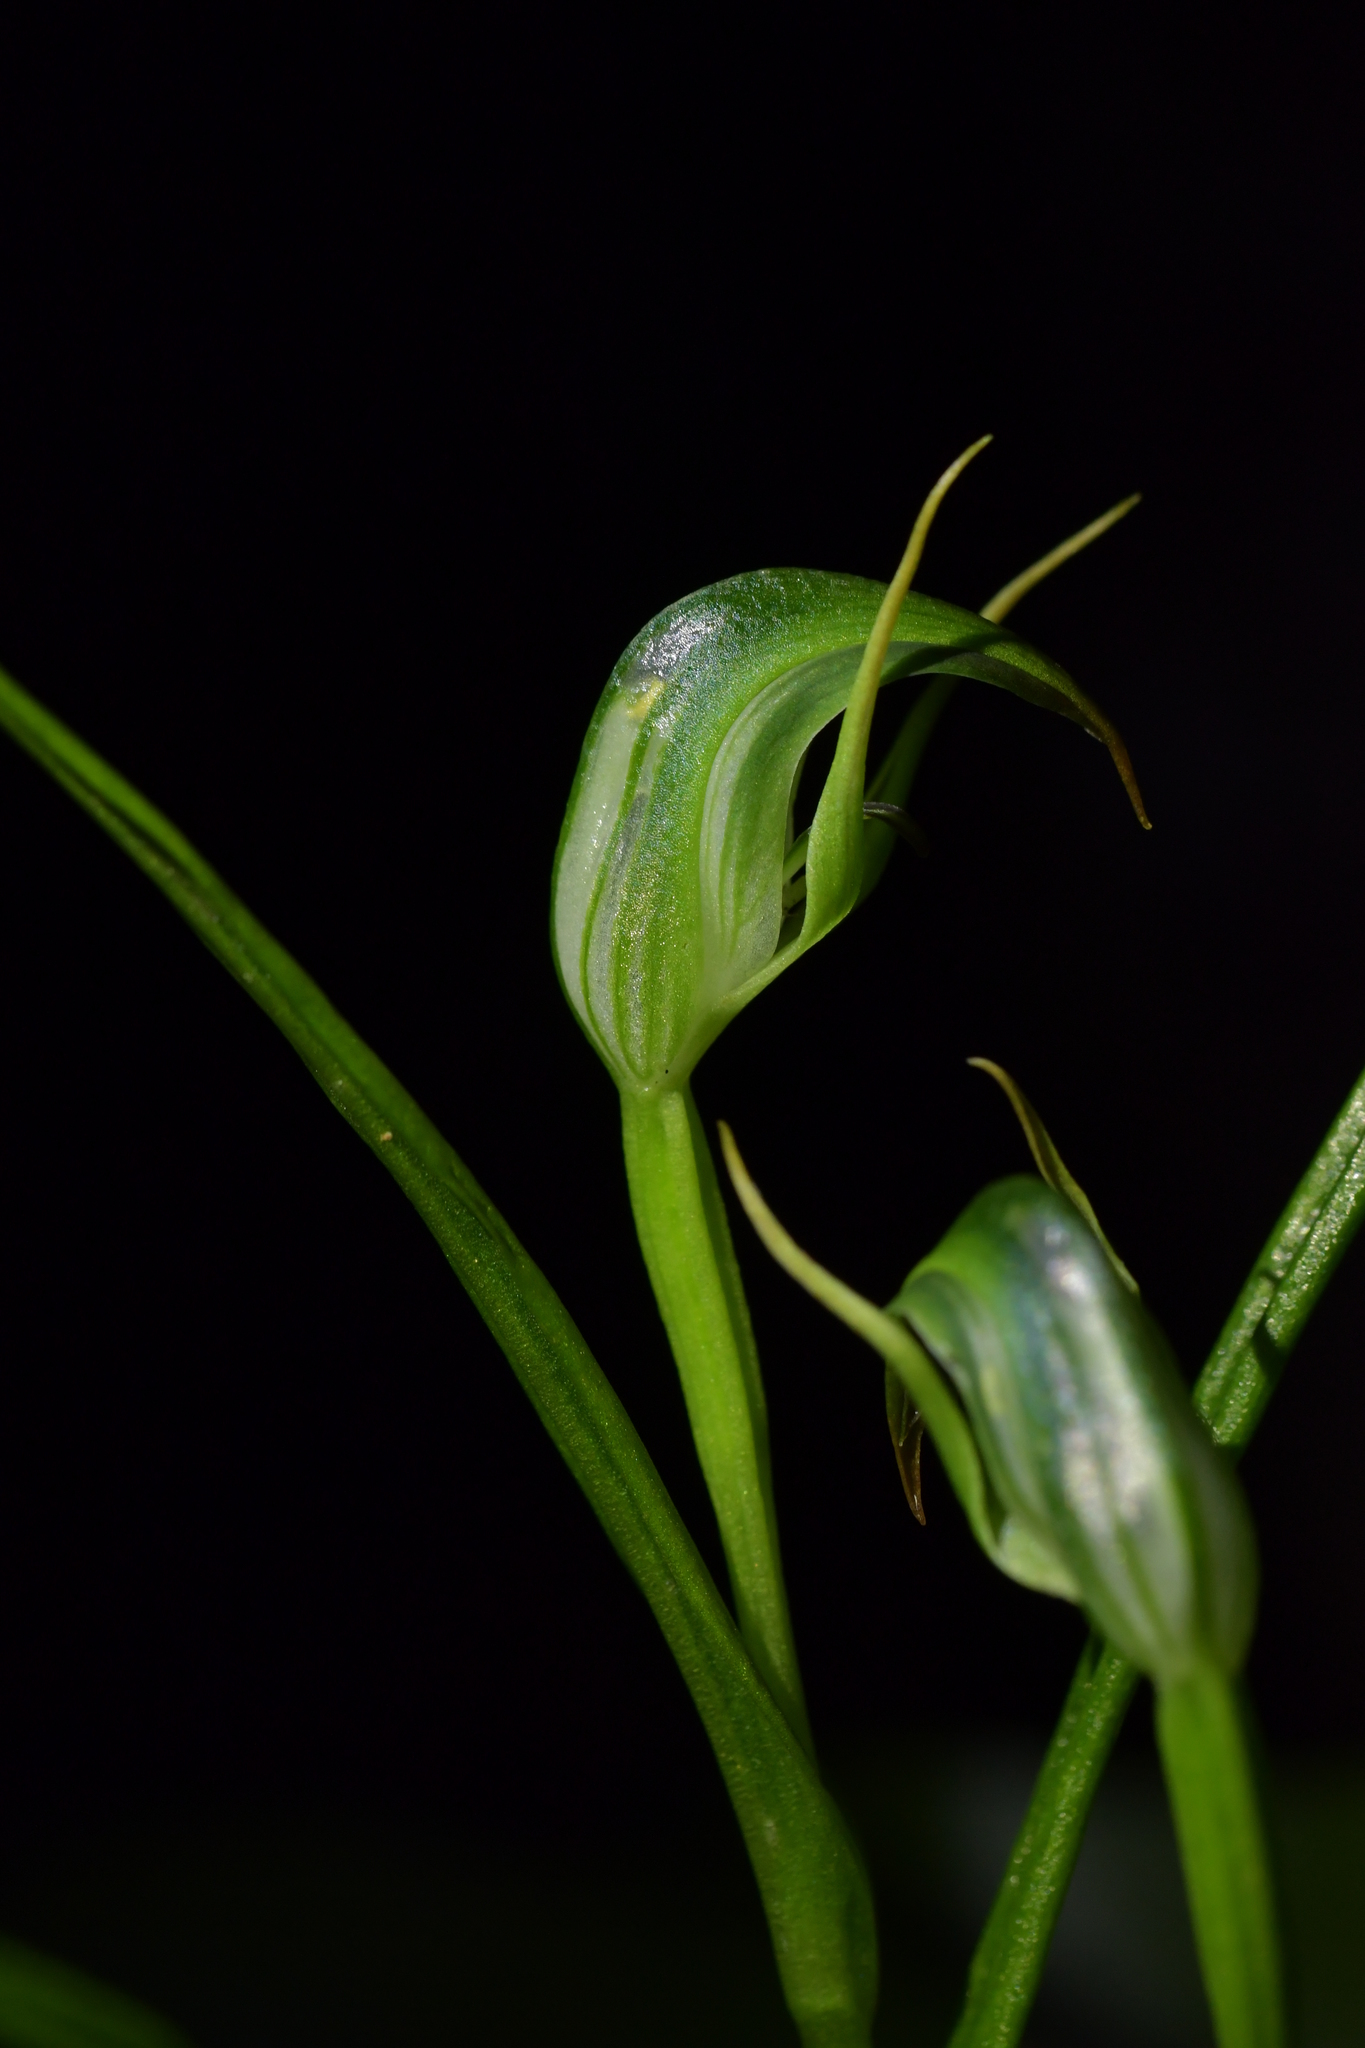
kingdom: Plantae
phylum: Tracheophyta
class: Liliopsida
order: Asparagales
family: Orchidaceae
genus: Pterostylis
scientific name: Pterostylis graminea
